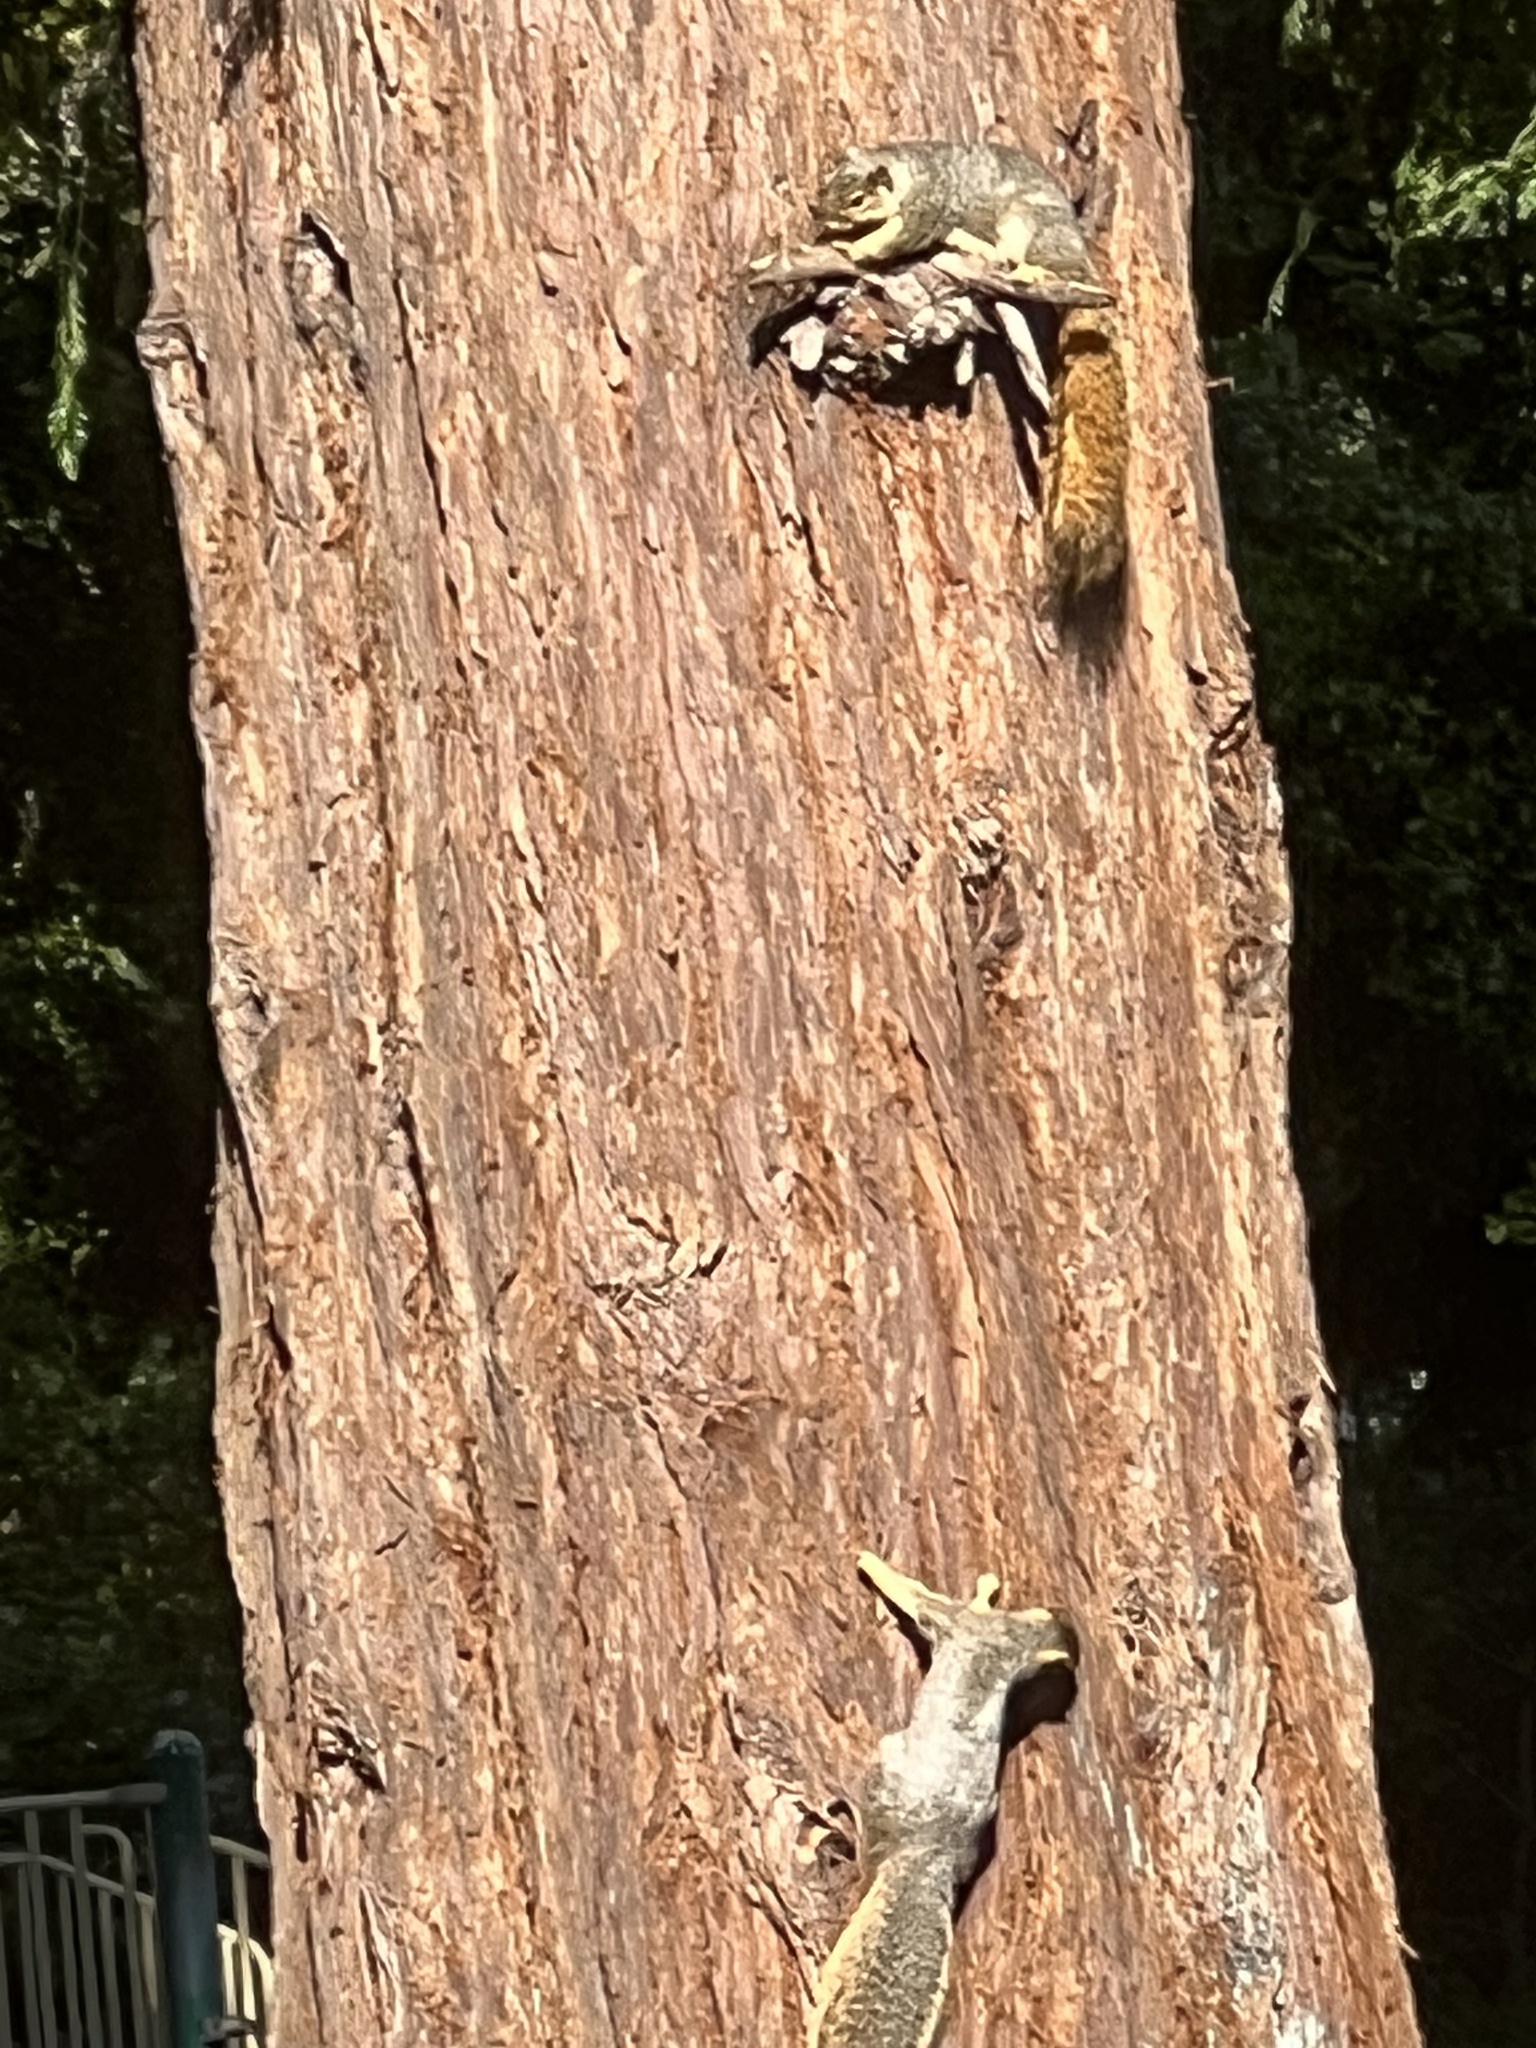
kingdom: Animalia
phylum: Chordata
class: Mammalia
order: Rodentia
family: Sciuridae
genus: Sciurus
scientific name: Sciurus niger
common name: Fox squirrel
